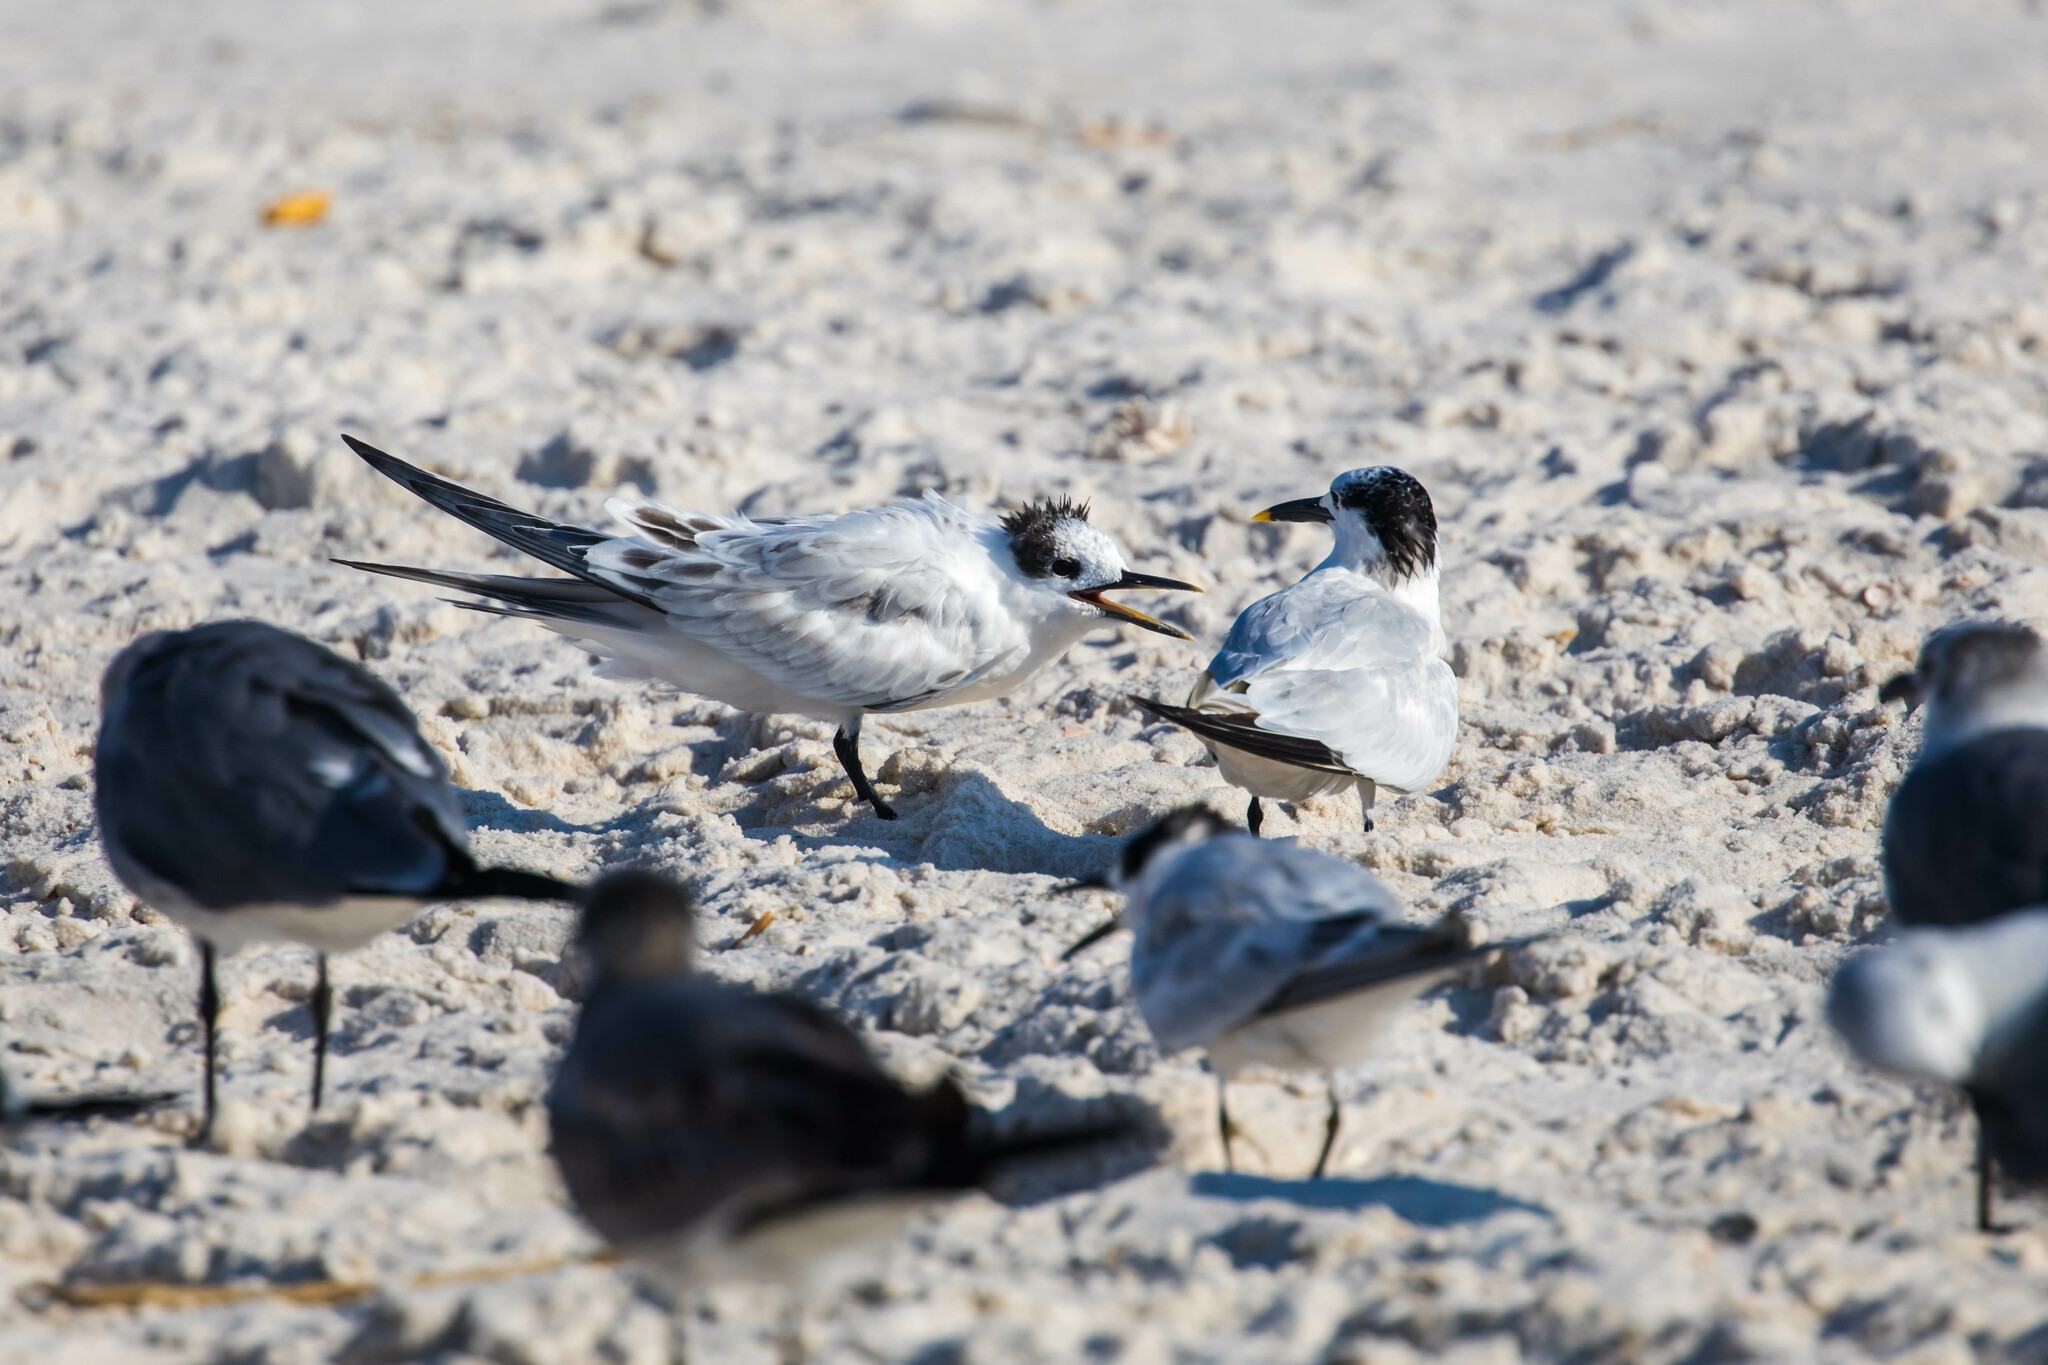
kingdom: Animalia
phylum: Chordata
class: Aves
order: Charadriiformes
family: Laridae
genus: Thalasseus
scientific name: Thalasseus sandvicensis
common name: Sandwich tern
